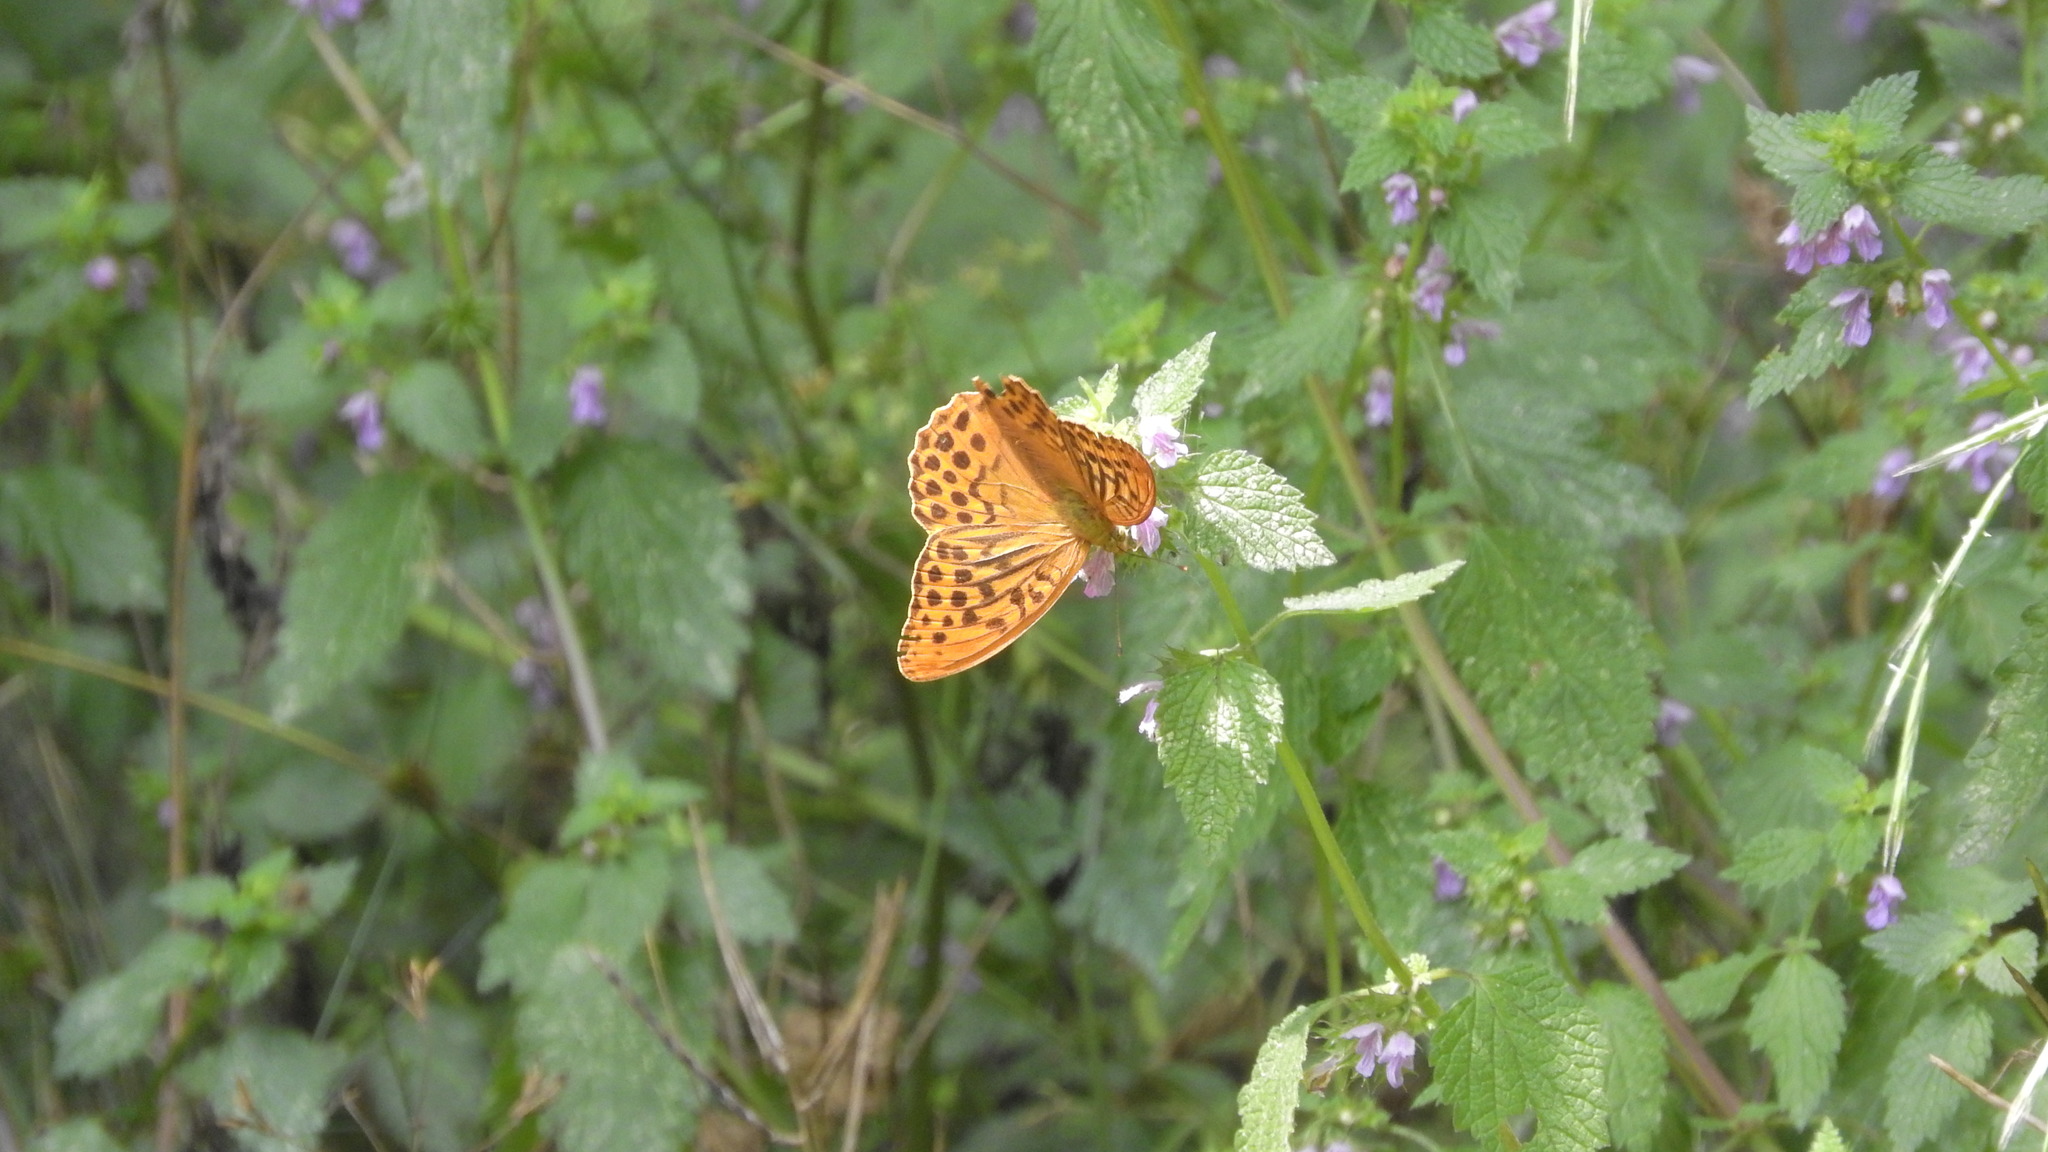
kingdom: Animalia
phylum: Arthropoda
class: Insecta
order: Lepidoptera
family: Nymphalidae
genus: Argynnis
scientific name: Argynnis paphia
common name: Silver-washed fritillary
